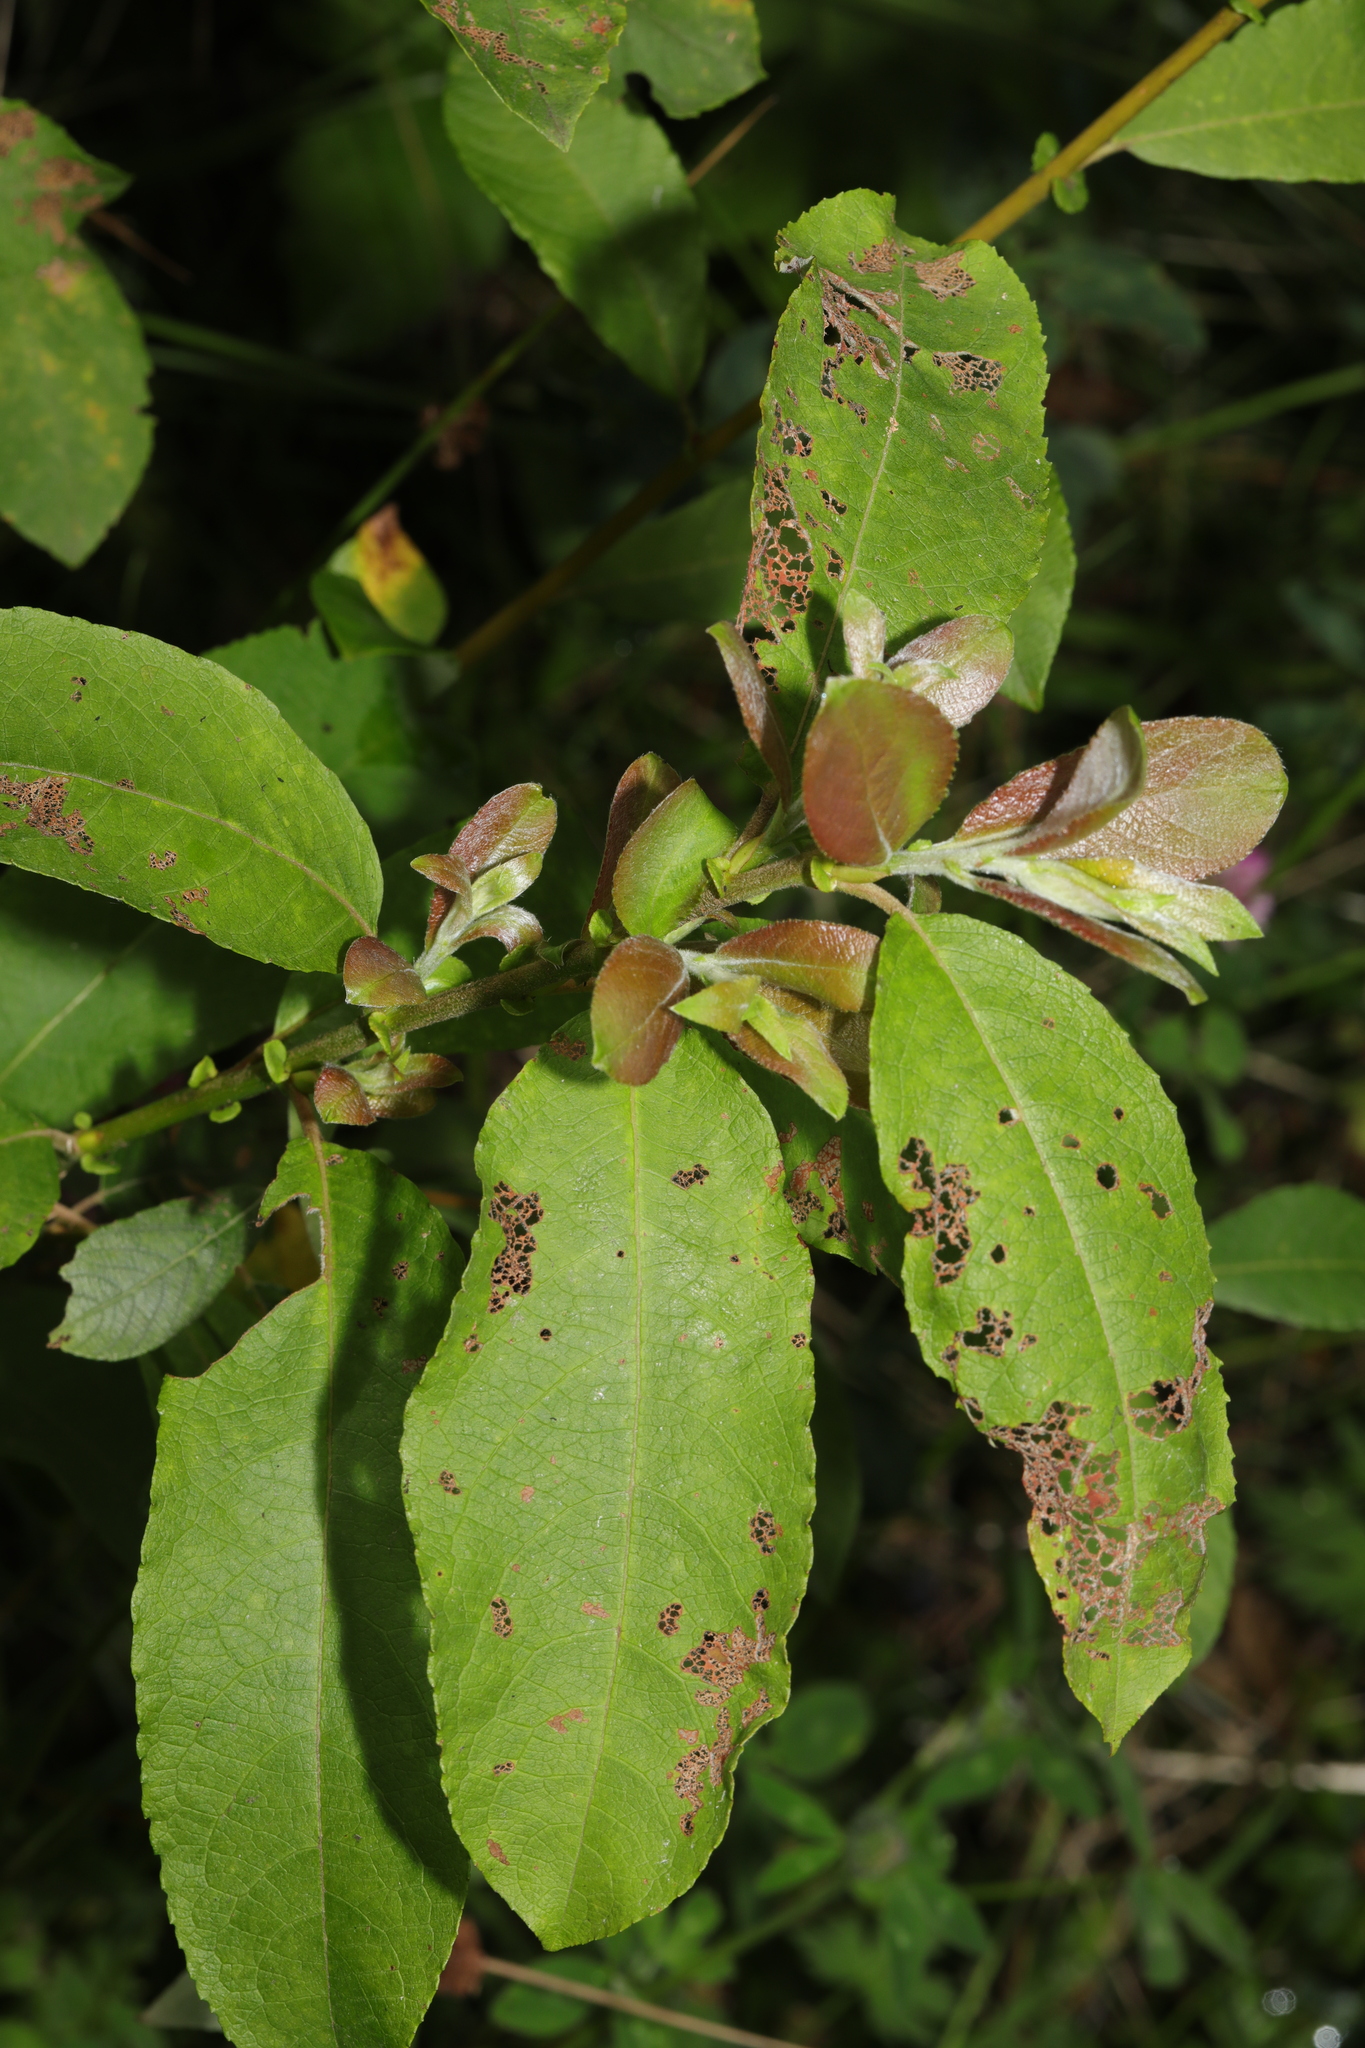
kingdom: Plantae
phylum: Tracheophyta
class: Magnoliopsida
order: Malpighiales
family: Salicaceae
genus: Salix
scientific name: Salix caprea
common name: Goat willow
